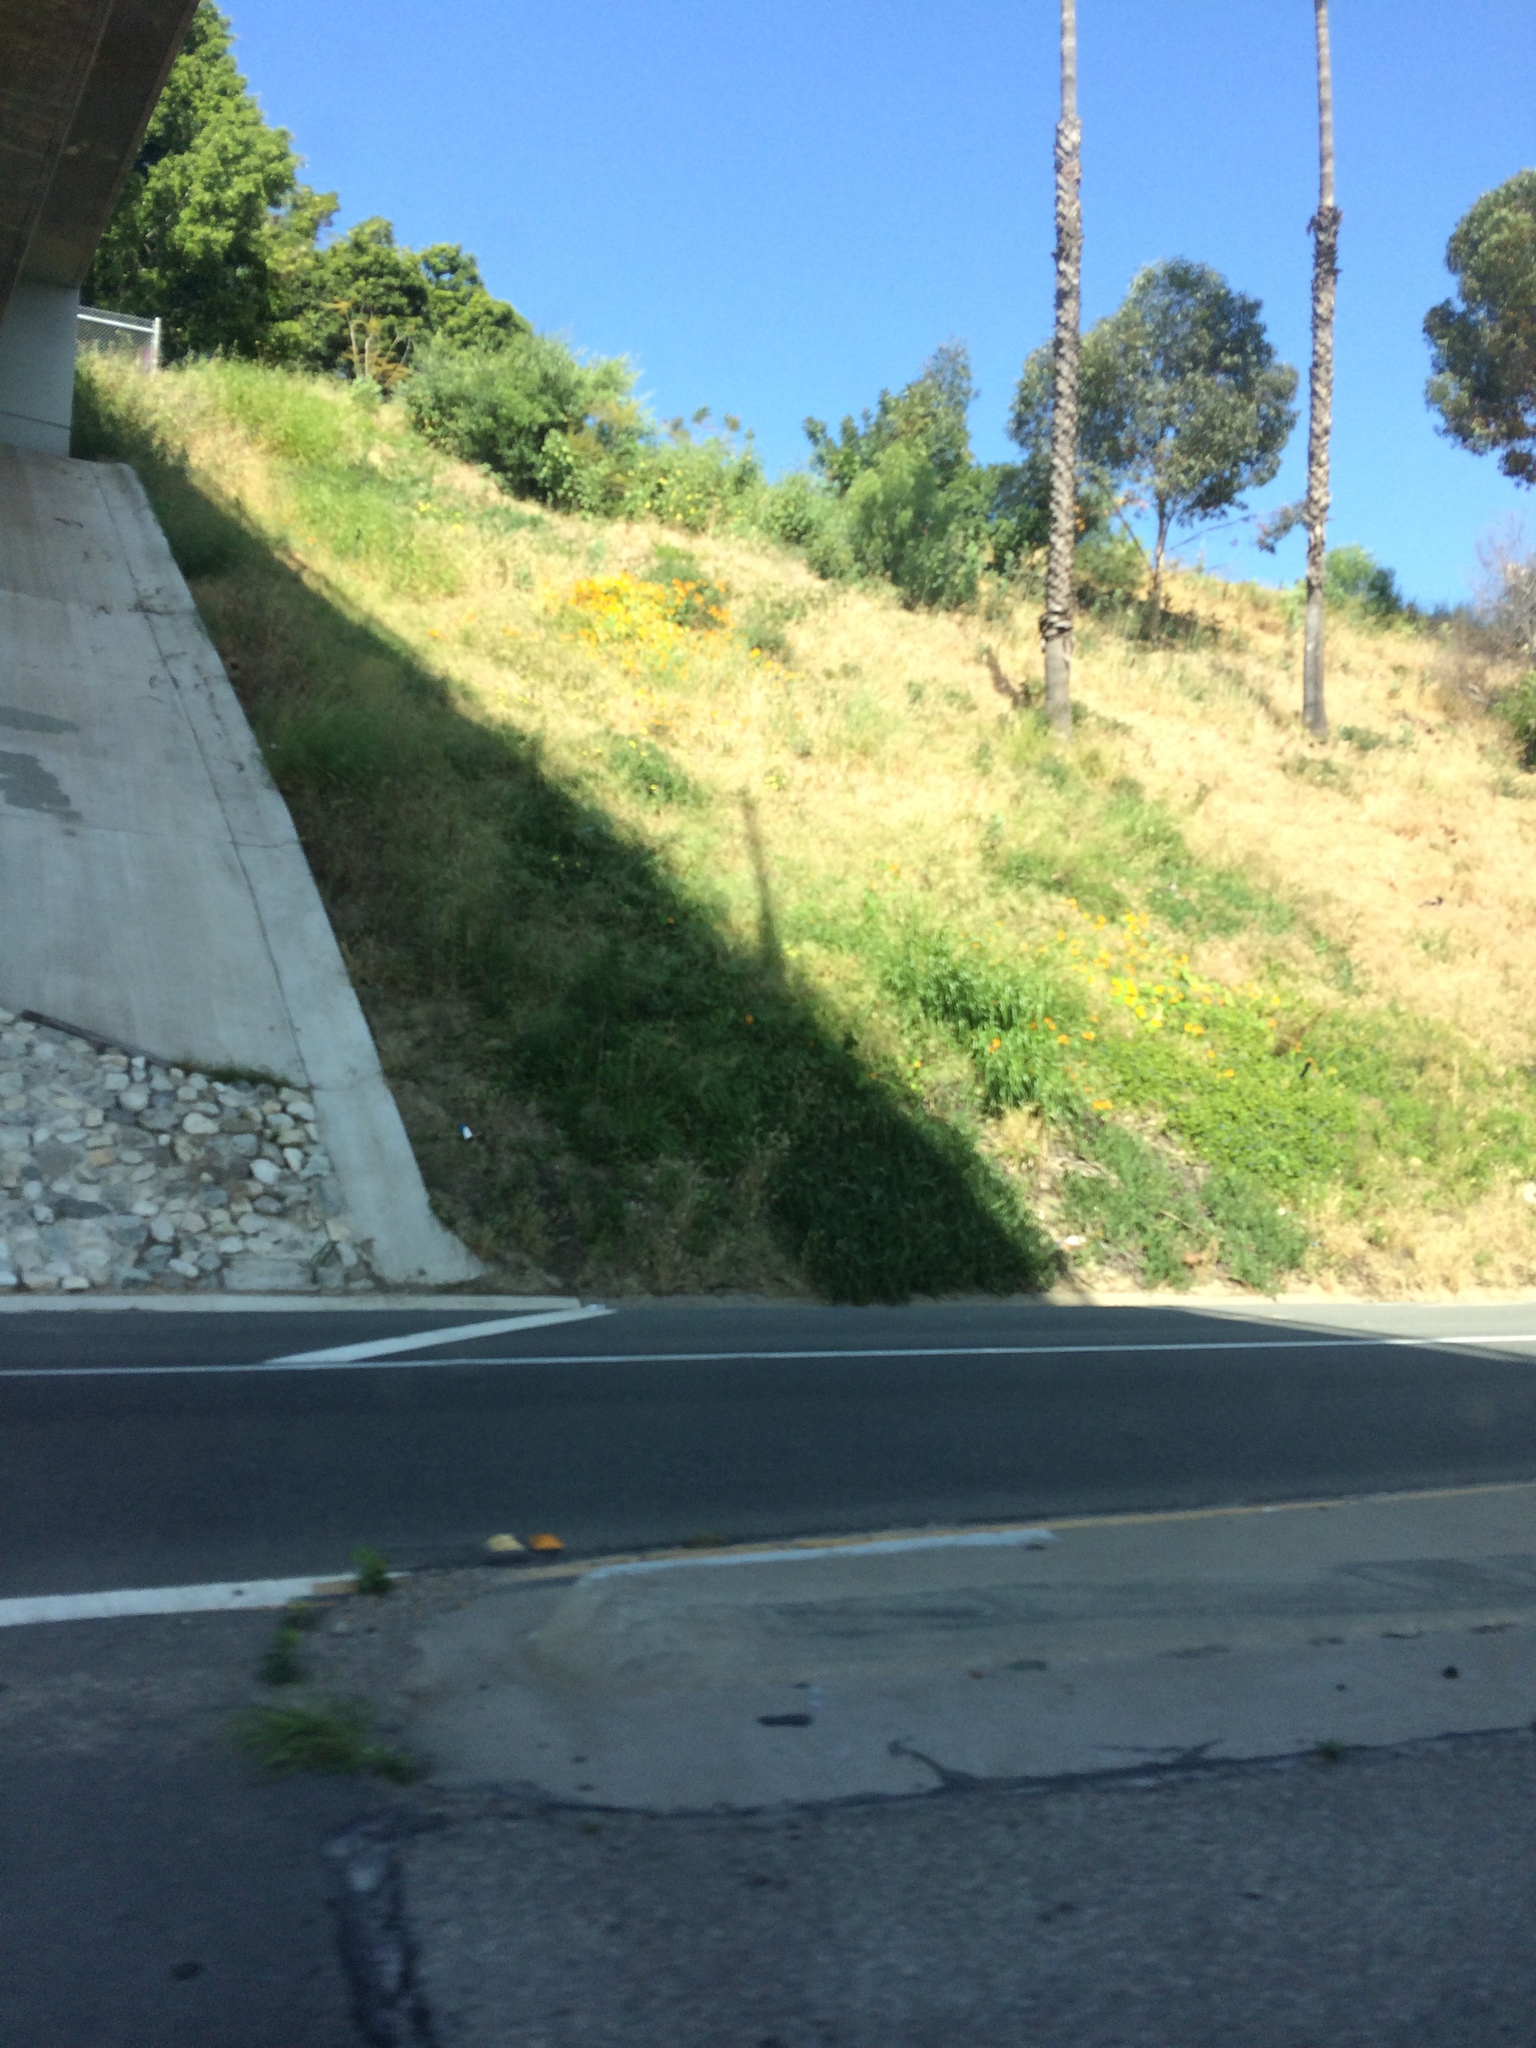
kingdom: Plantae
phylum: Tracheophyta
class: Magnoliopsida
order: Brassicales
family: Tropaeolaceae
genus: Tropaeolum
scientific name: Tropaeolum majus
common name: Nasturtium
